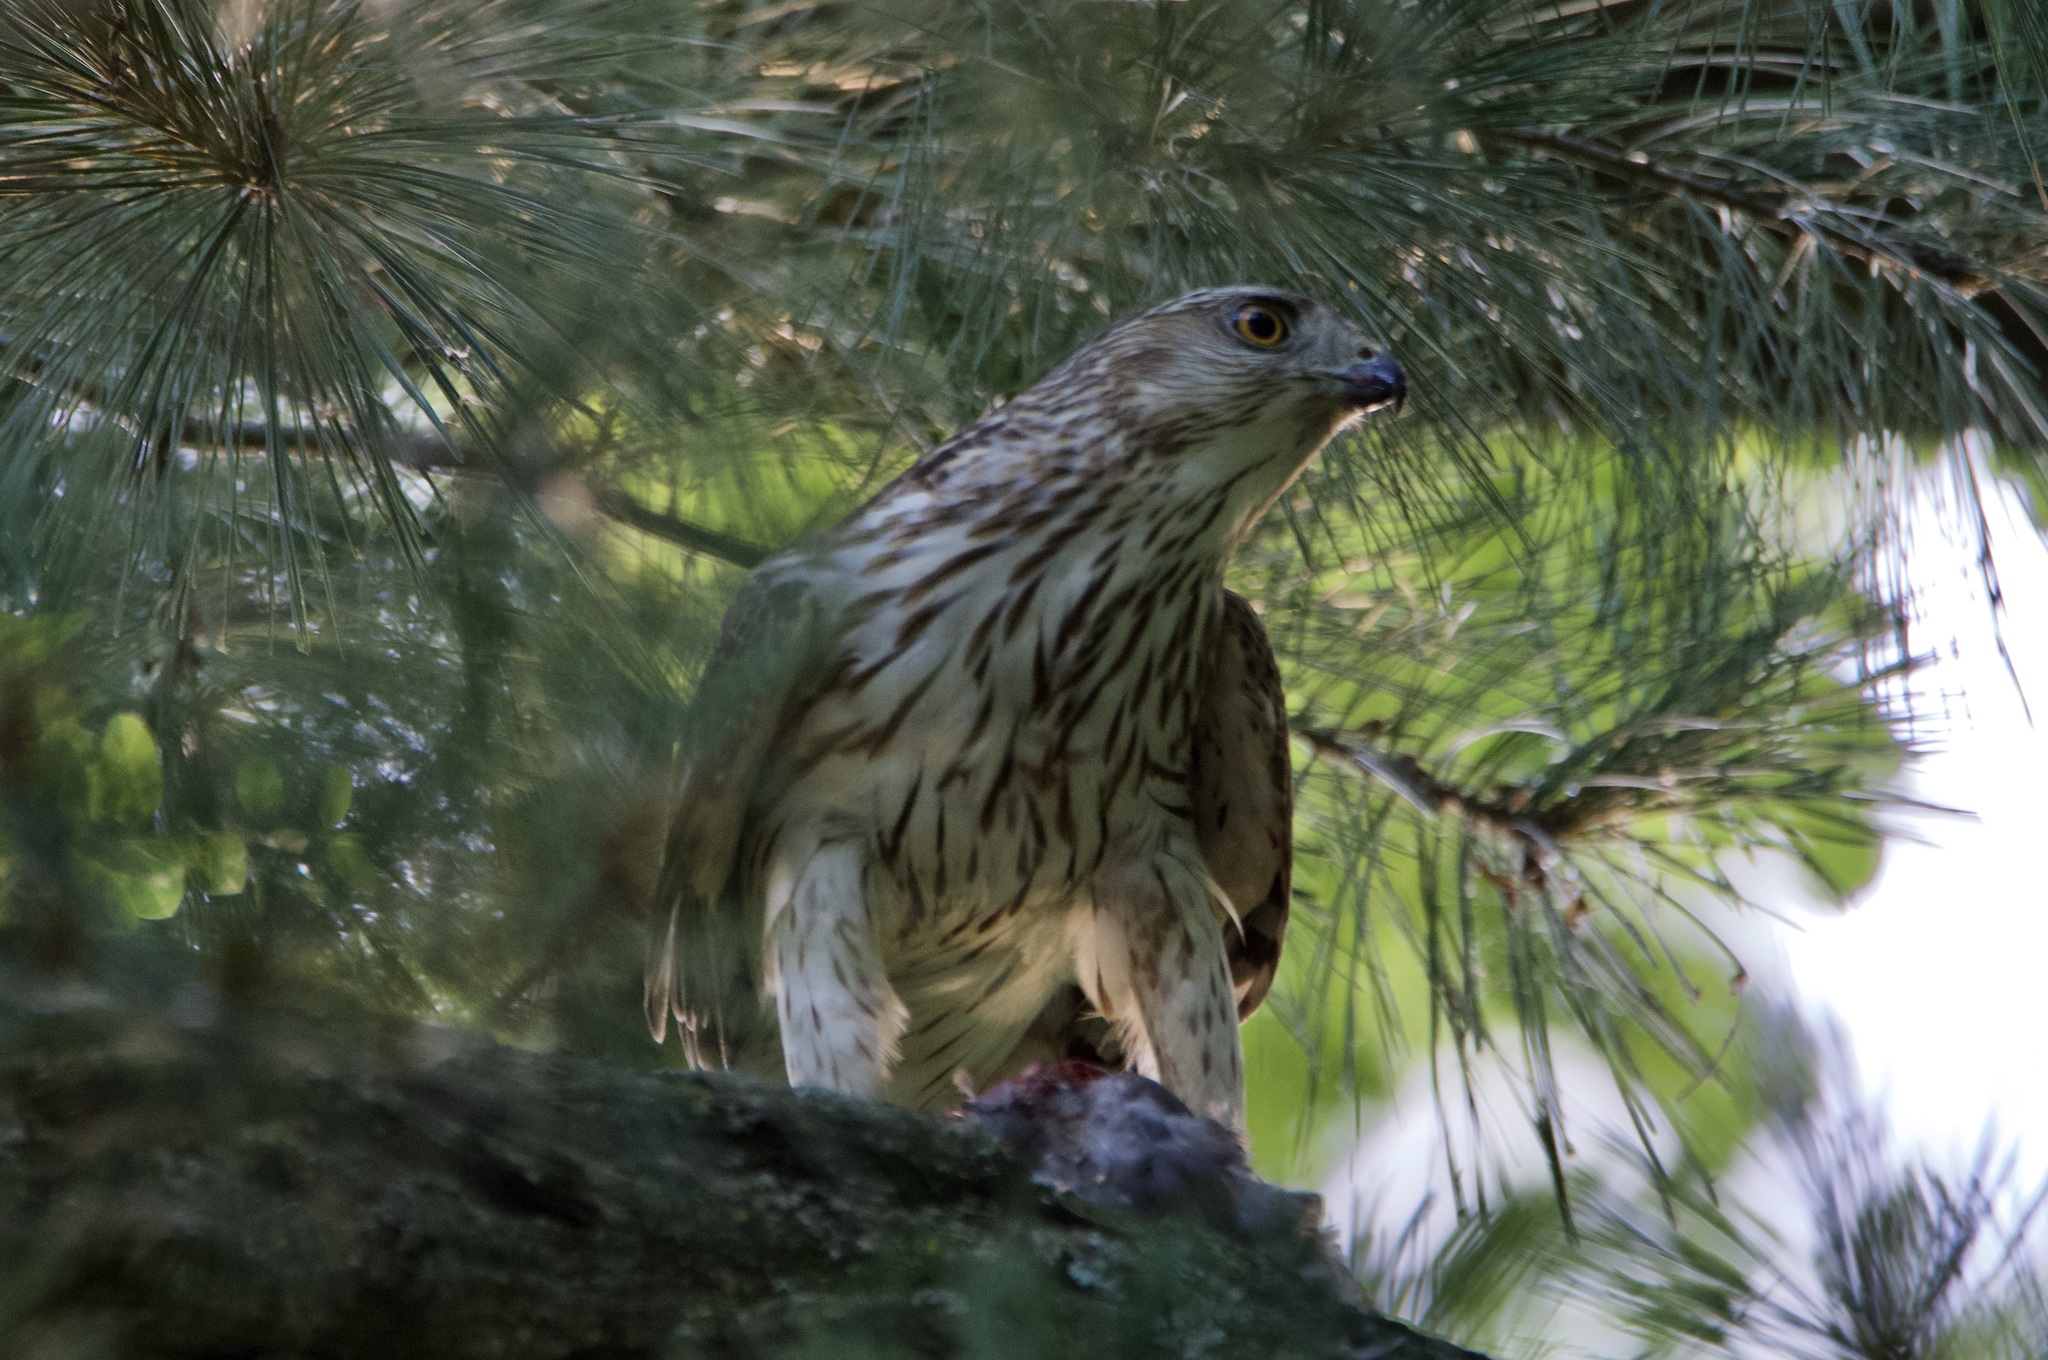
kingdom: Animalia
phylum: Chordata
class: Aves
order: Accipitriformes
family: Accipitridae
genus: Accipiter
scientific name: Accipiter cooperii
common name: Cooper's hawk
